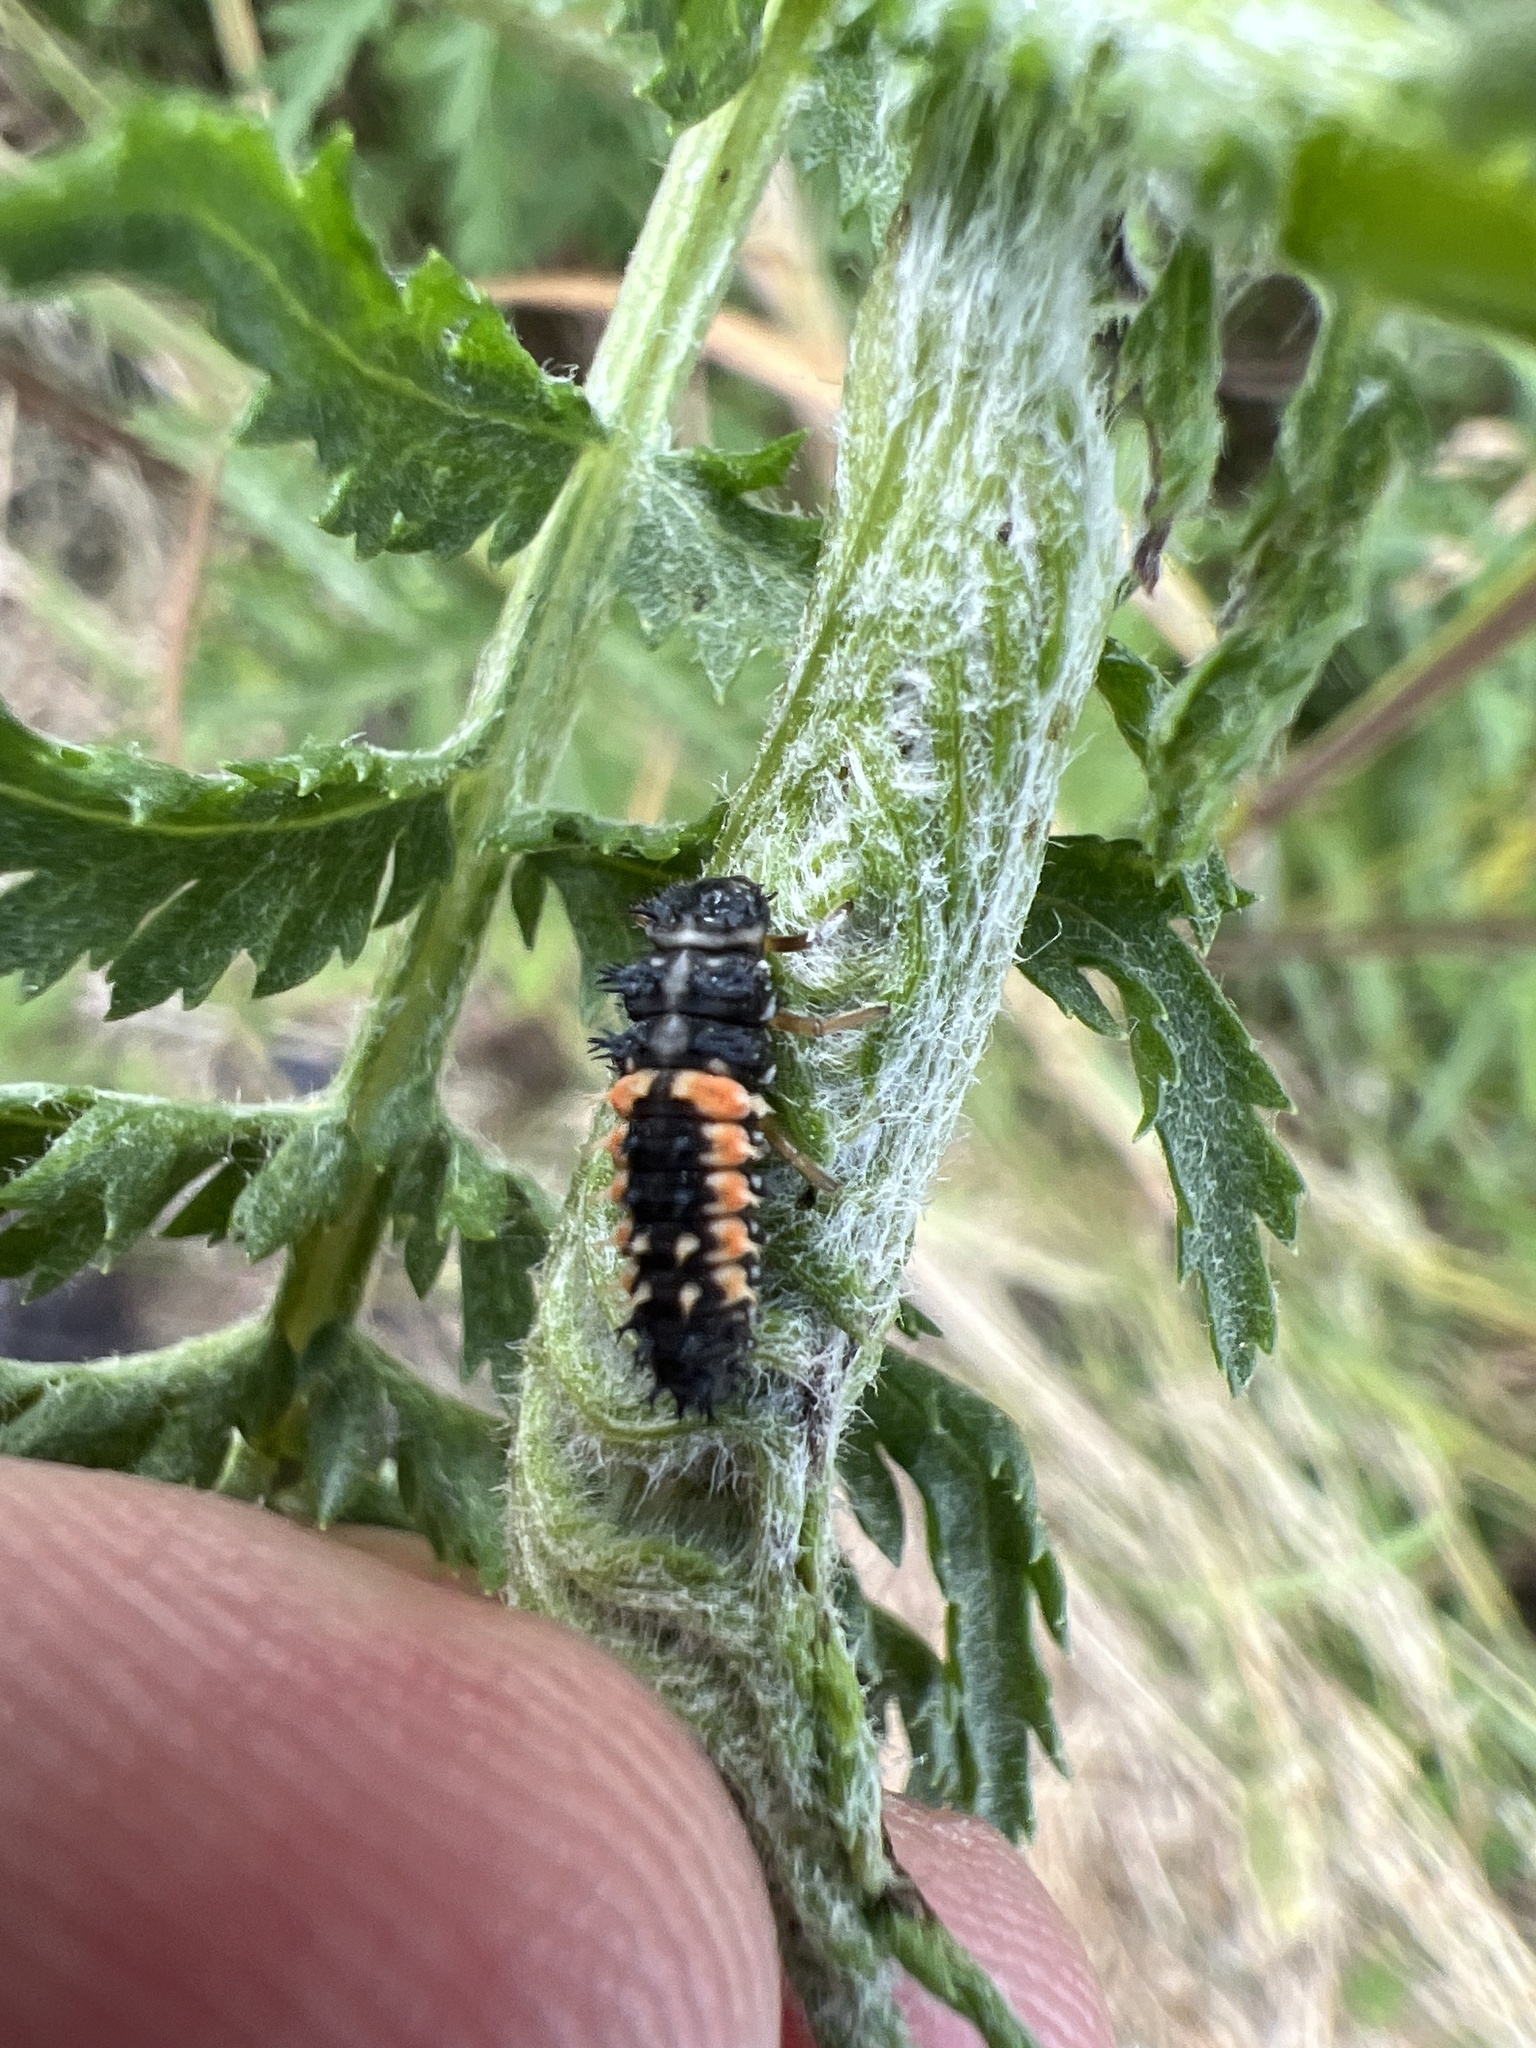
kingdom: Animalia
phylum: Arthropoda
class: Insecta
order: Coleoptera
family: Coccinellidae
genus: Harmonia
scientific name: Harmonia axyridis
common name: Harlequin ladybird
